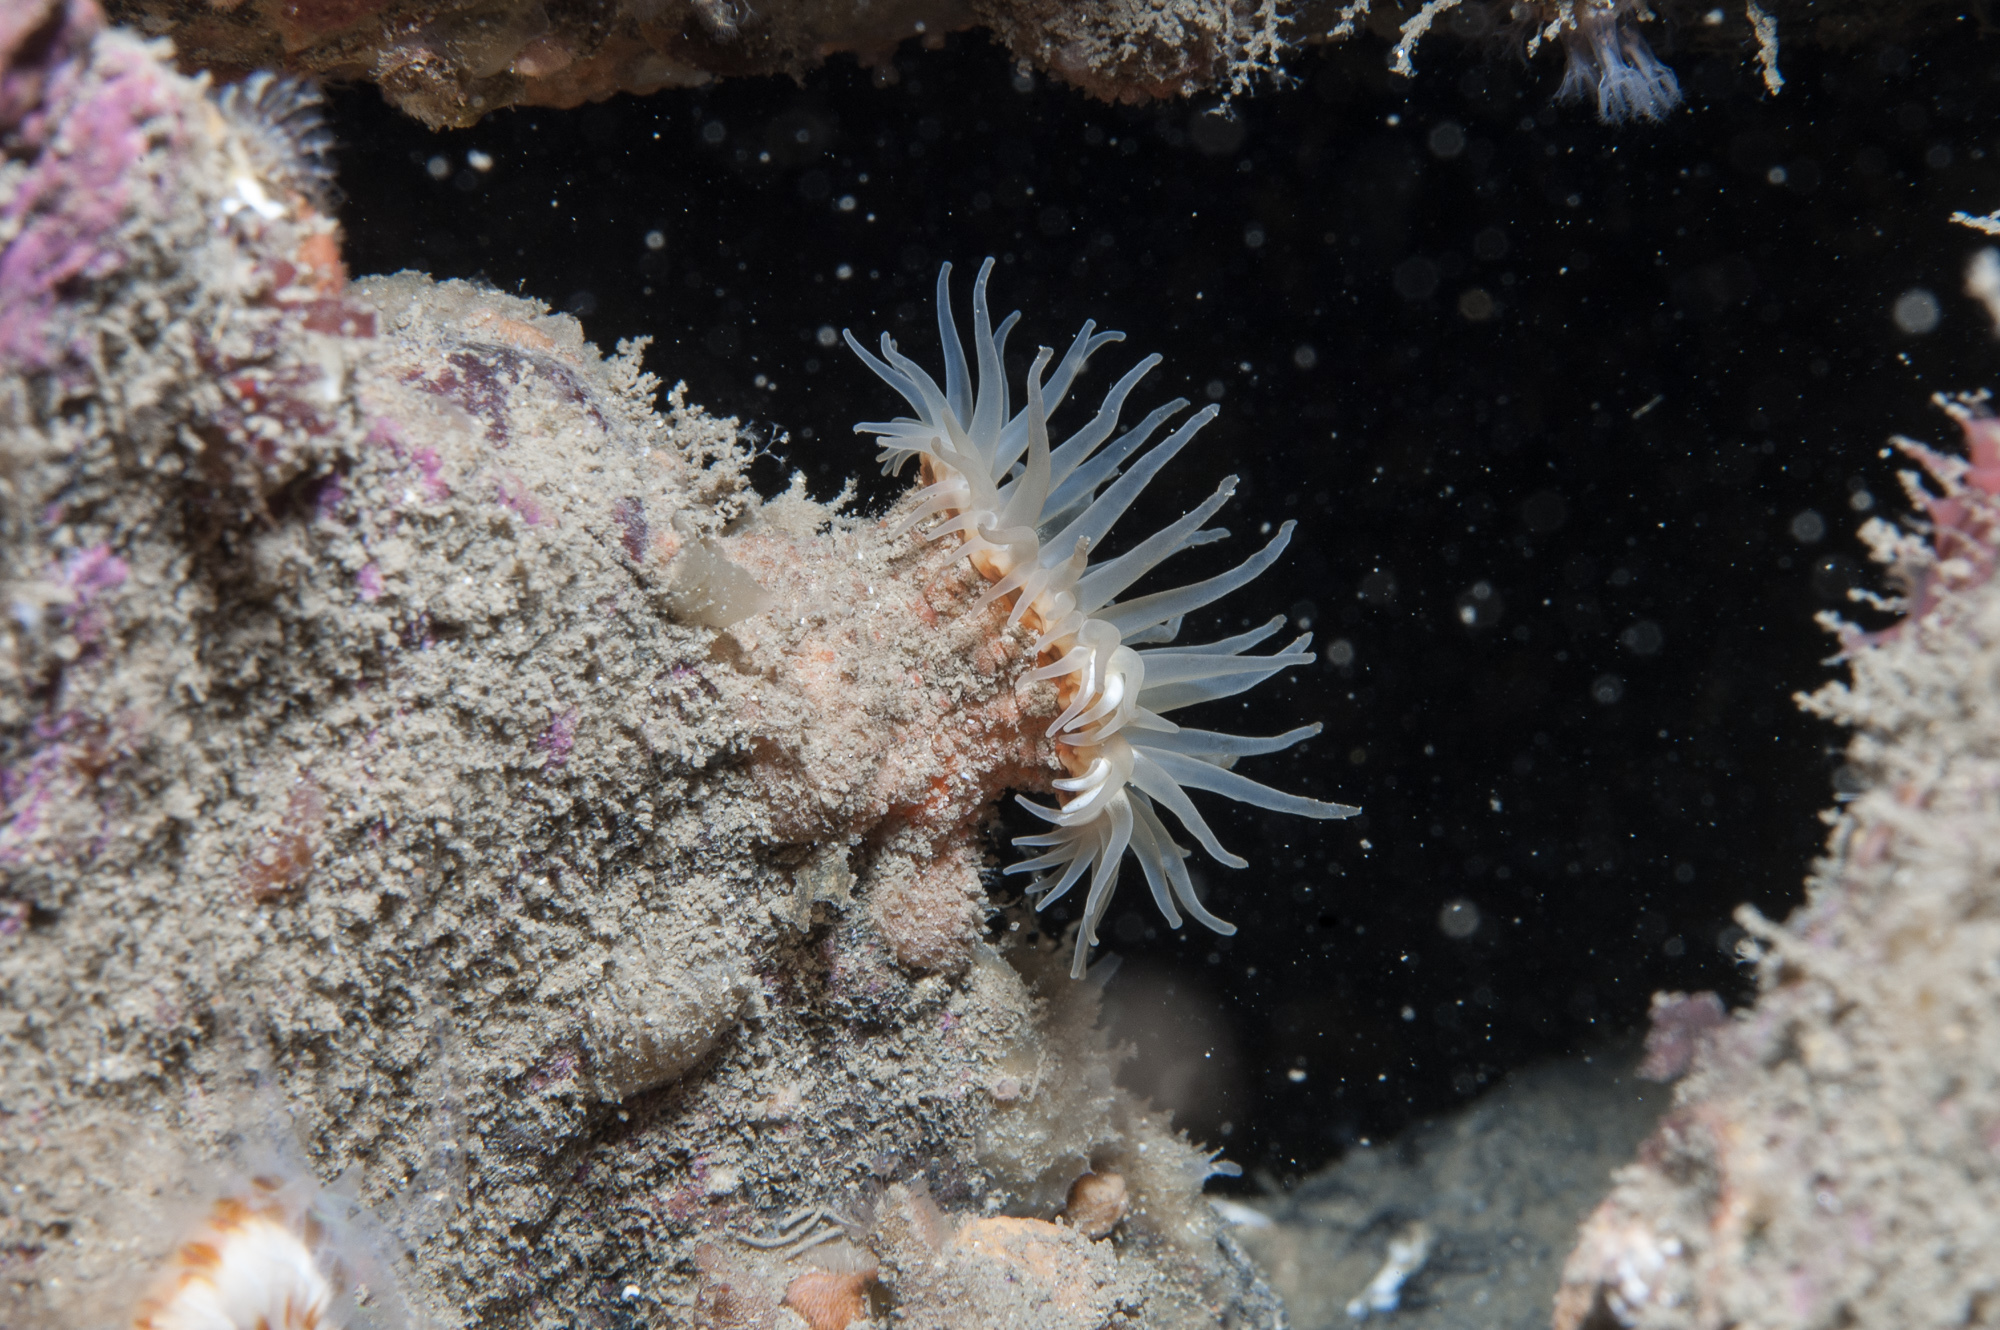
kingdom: Animalia
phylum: Cnidaria
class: Anthozoa
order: Actiniaria
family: Hormathiidae
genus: Hormathia
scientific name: Hormathia coronata
